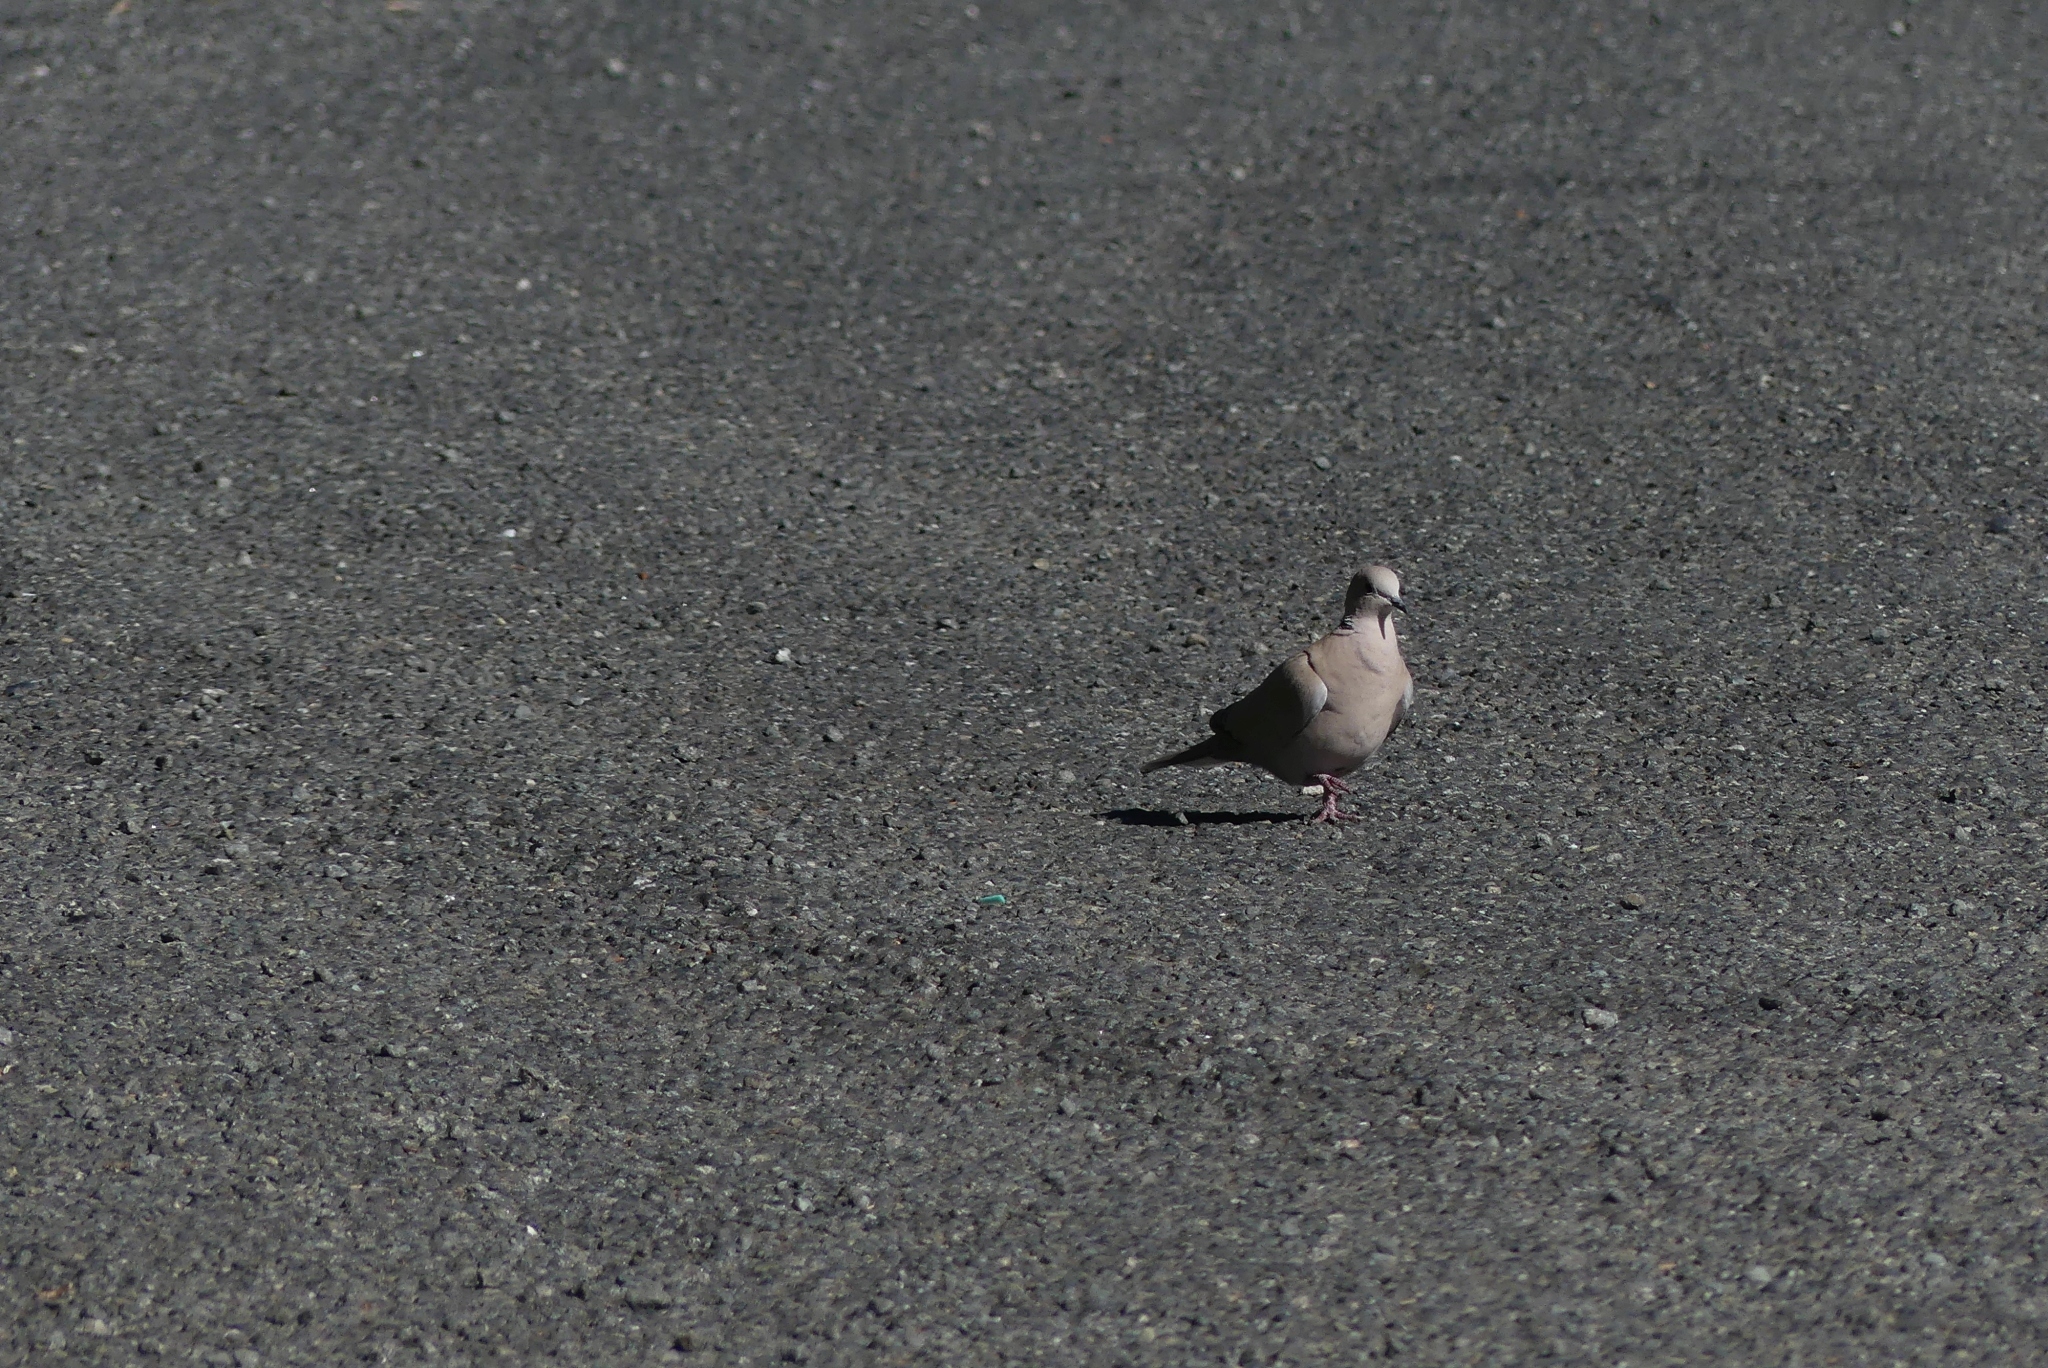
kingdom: Animalia
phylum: Chordata
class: Aves
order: Columbiformes
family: Columbidae
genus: Streptopelia
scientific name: Streptopelia decaocto
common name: Eurasian collared dove
